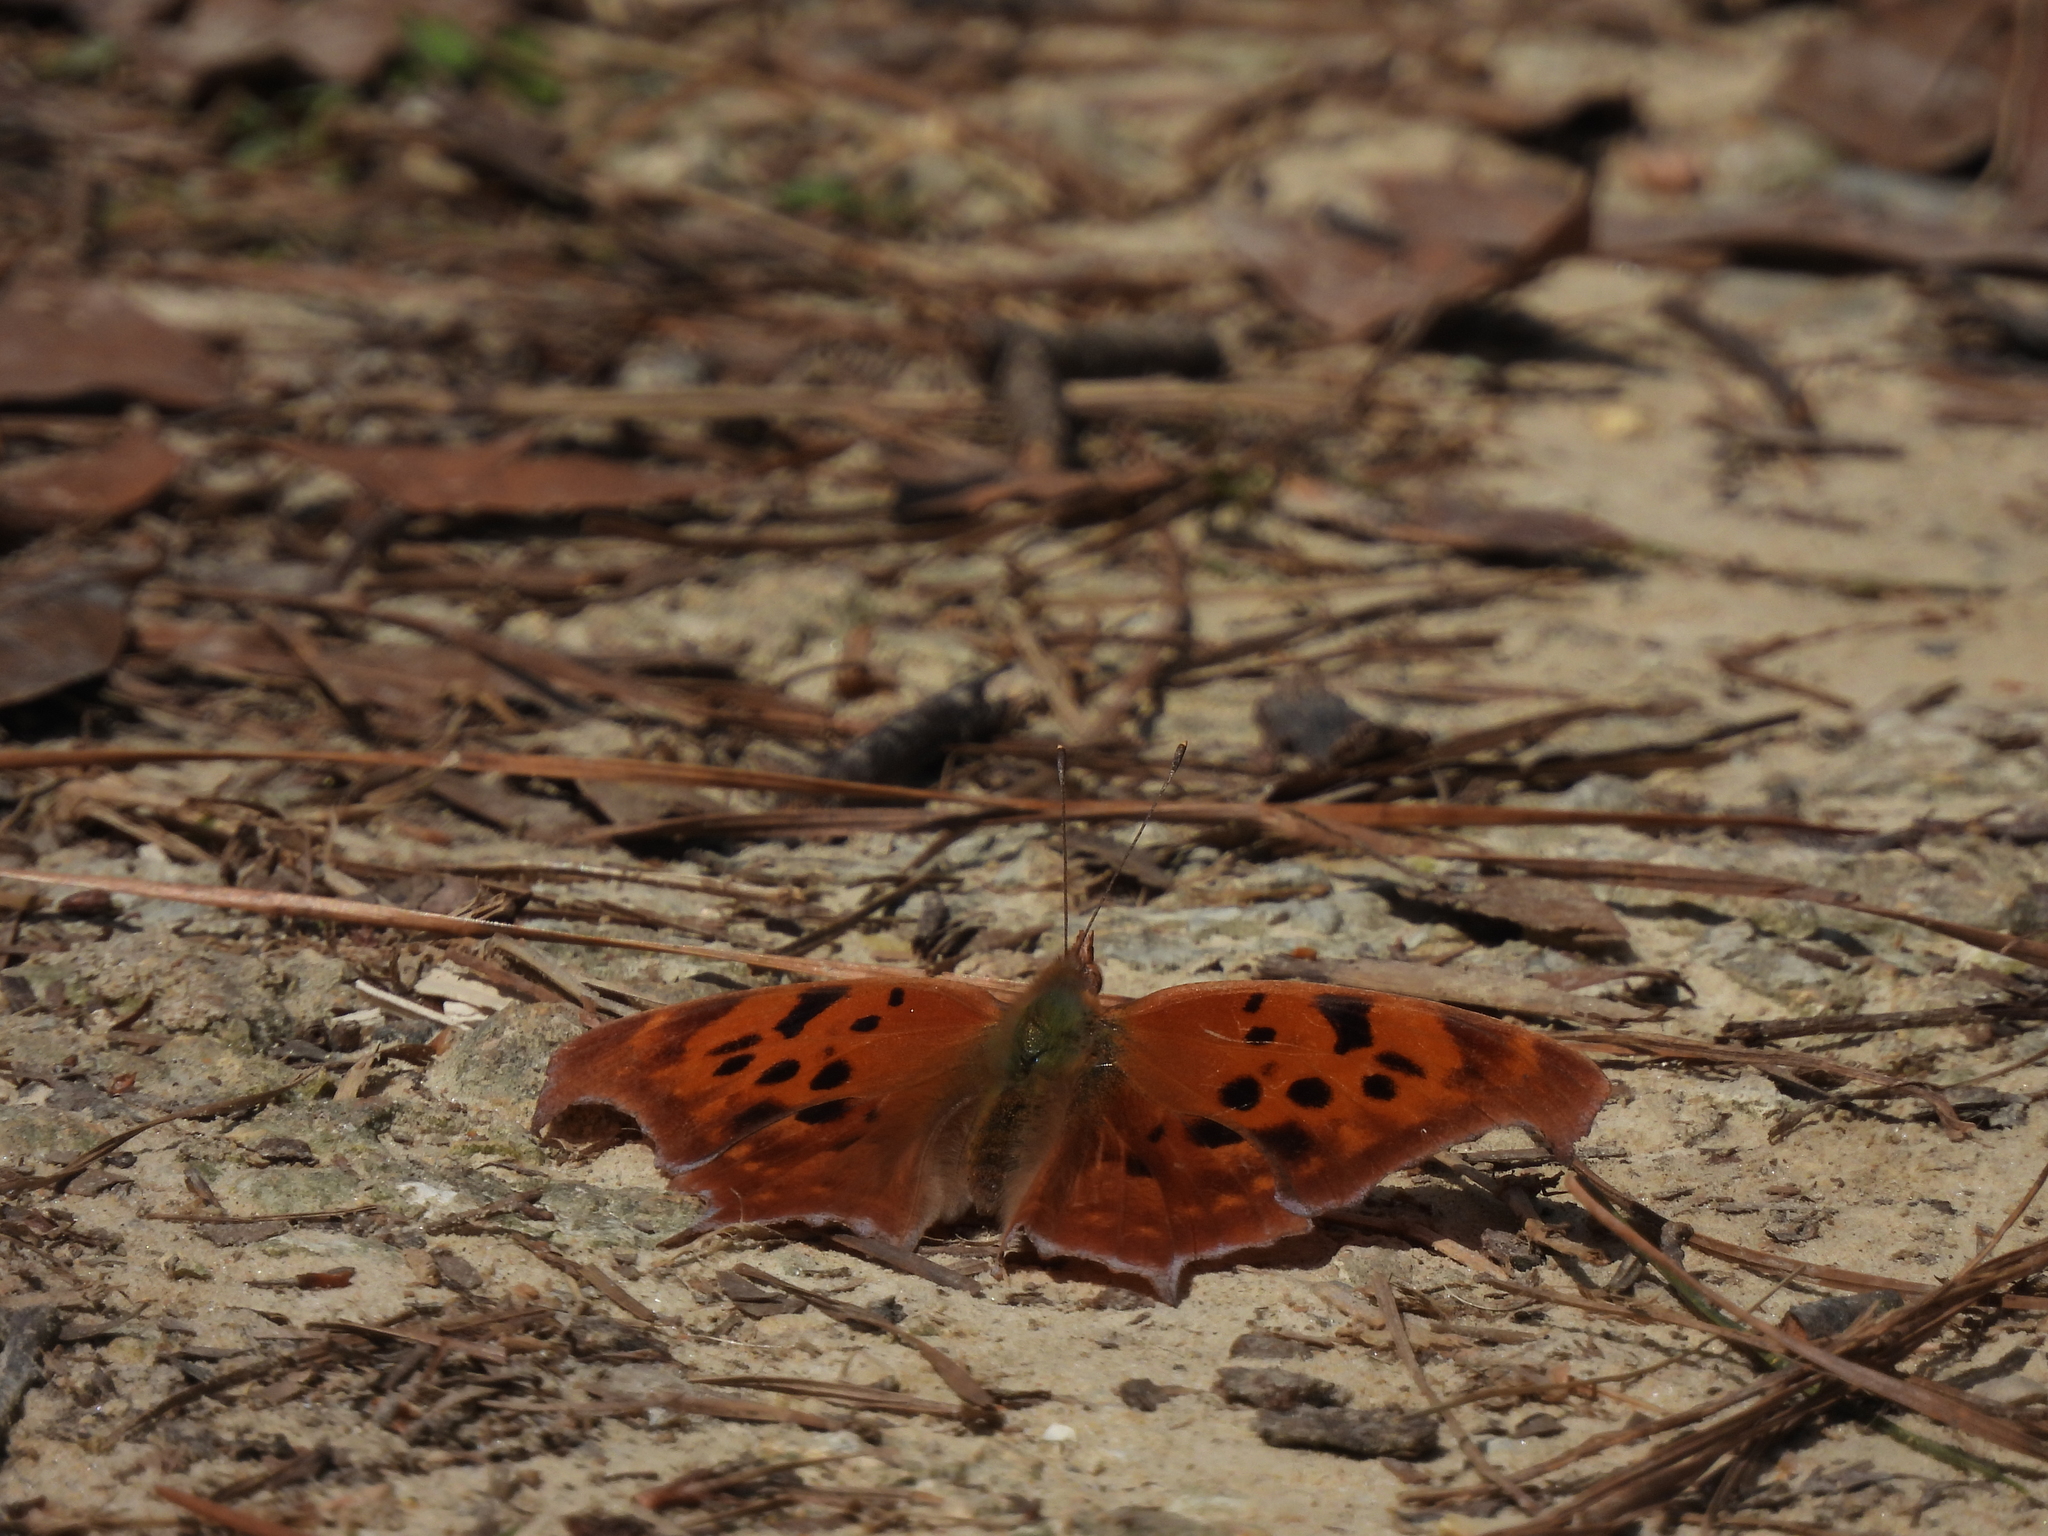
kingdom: Animalia
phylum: Arthropoda
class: Insecta
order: Lepidoptera
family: Nymphalidae
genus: Polygonia
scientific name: Polygonia interrogationis
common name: Question mark
